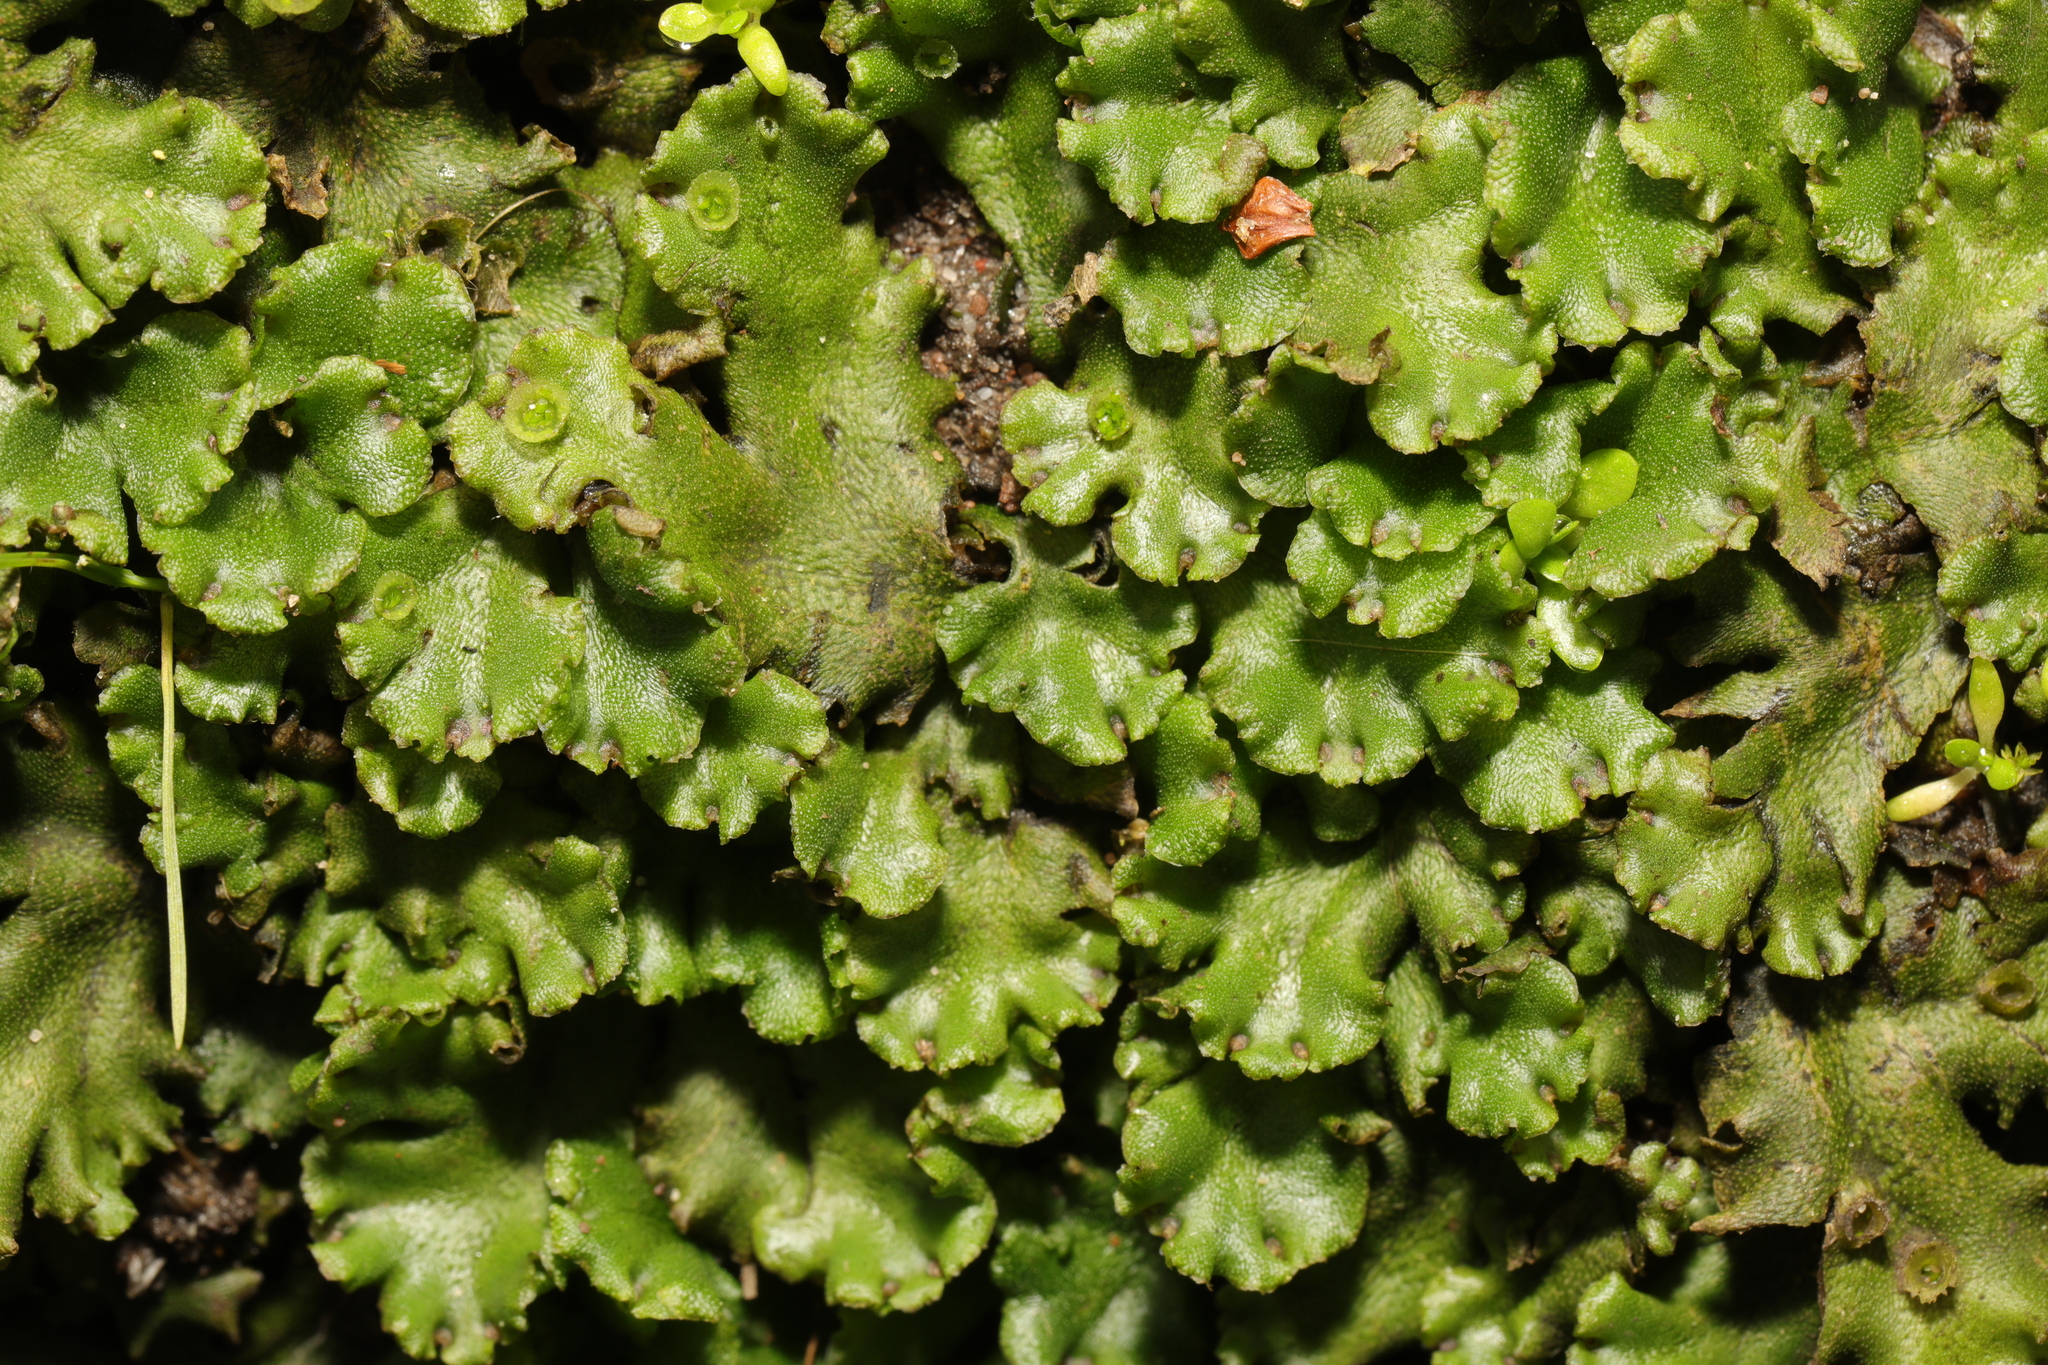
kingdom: Plantae
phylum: Marchantiophyta
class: Marchantiopsida
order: Marchantiales
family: Marchantiaceae
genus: Marchantia
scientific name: Marchantia polymorpha
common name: Common liverwort
